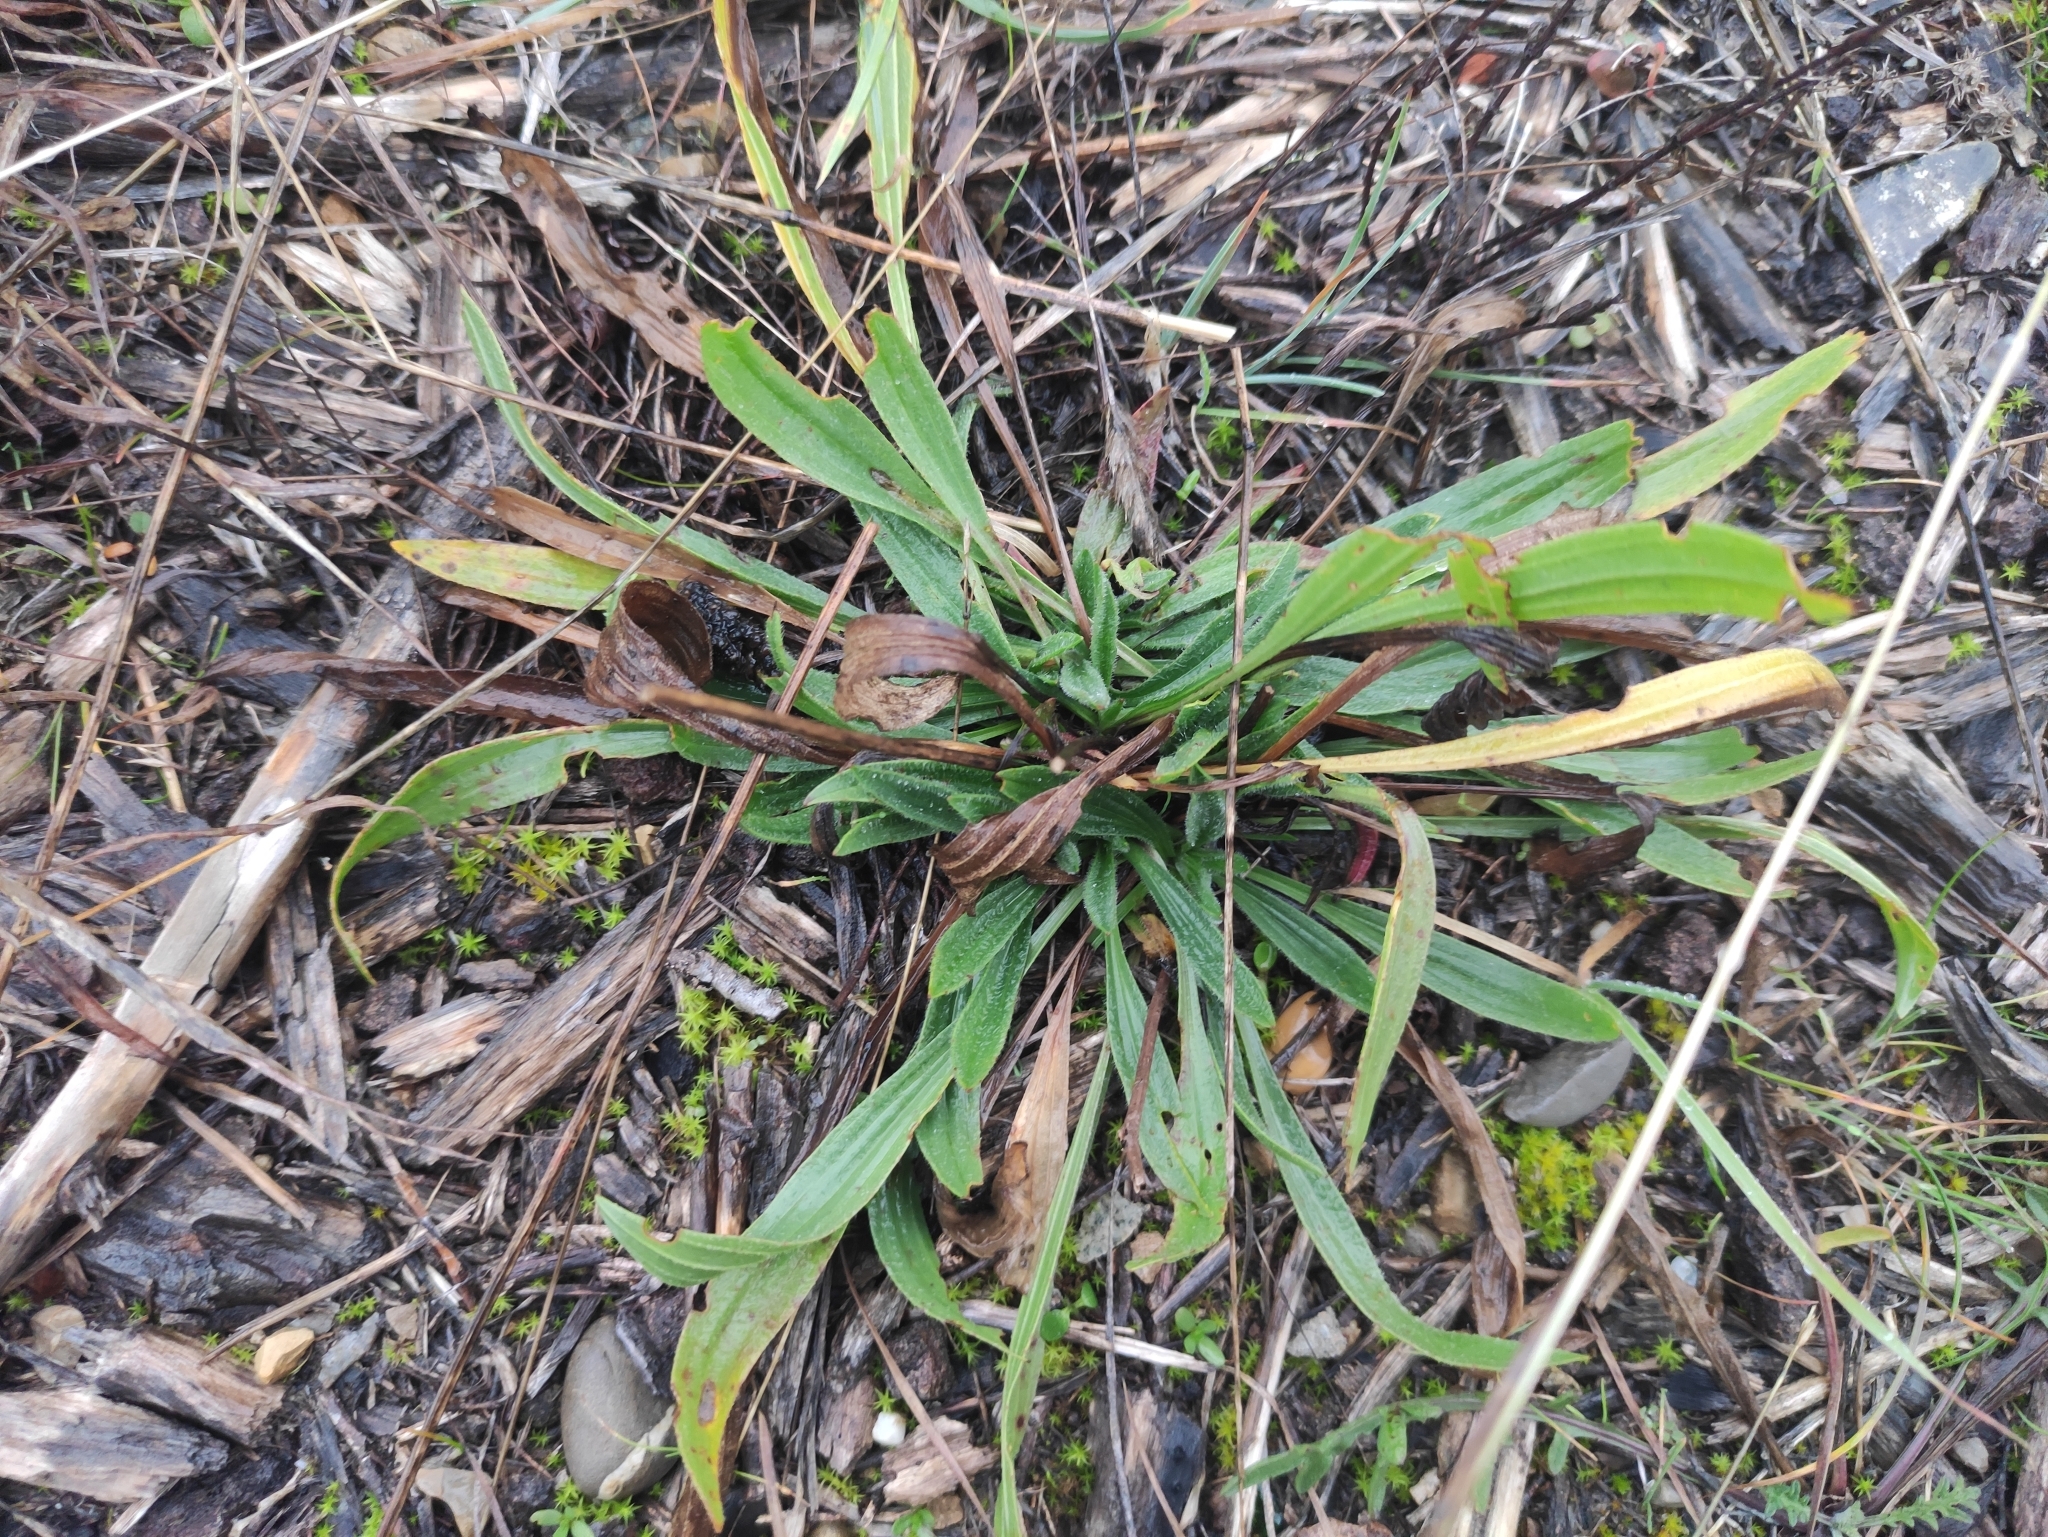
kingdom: Plantae
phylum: Tracheophyta
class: Magnoliopsida
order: Lamiales
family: Plantaginaceae
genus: Plantago
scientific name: Plantago lanceolata
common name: Ribwort plantain
